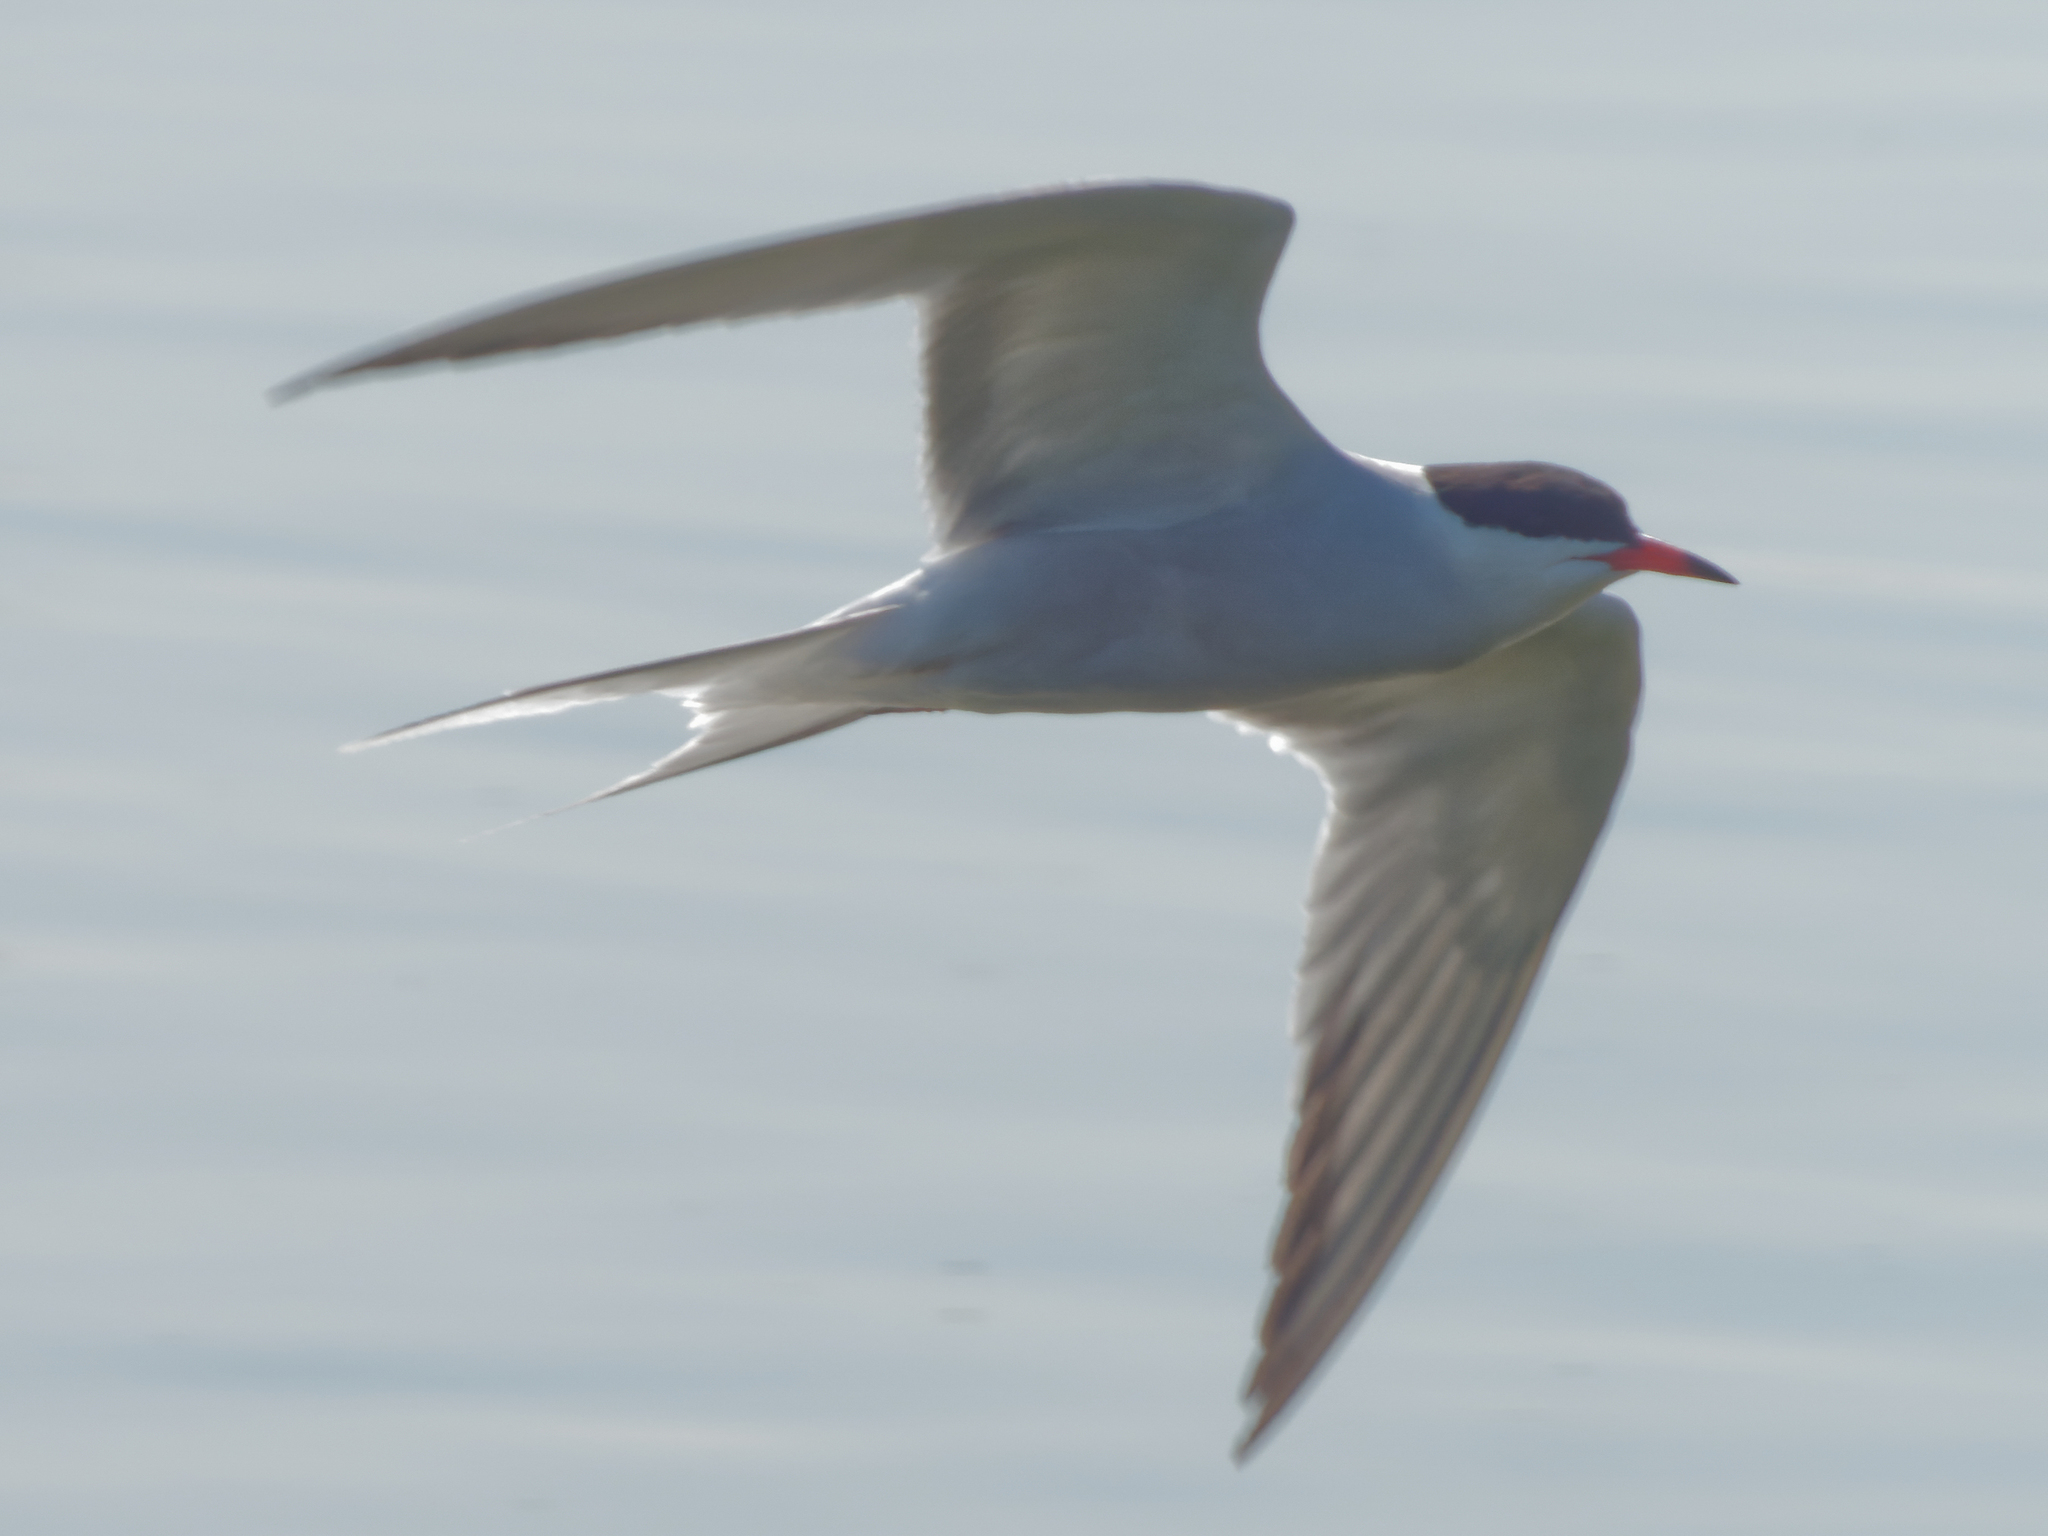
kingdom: Animalia
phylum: Chordata
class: Aves
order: Charadriiformes
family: Laridae
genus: Sterna
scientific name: Sterna hirundo
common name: Common tern
